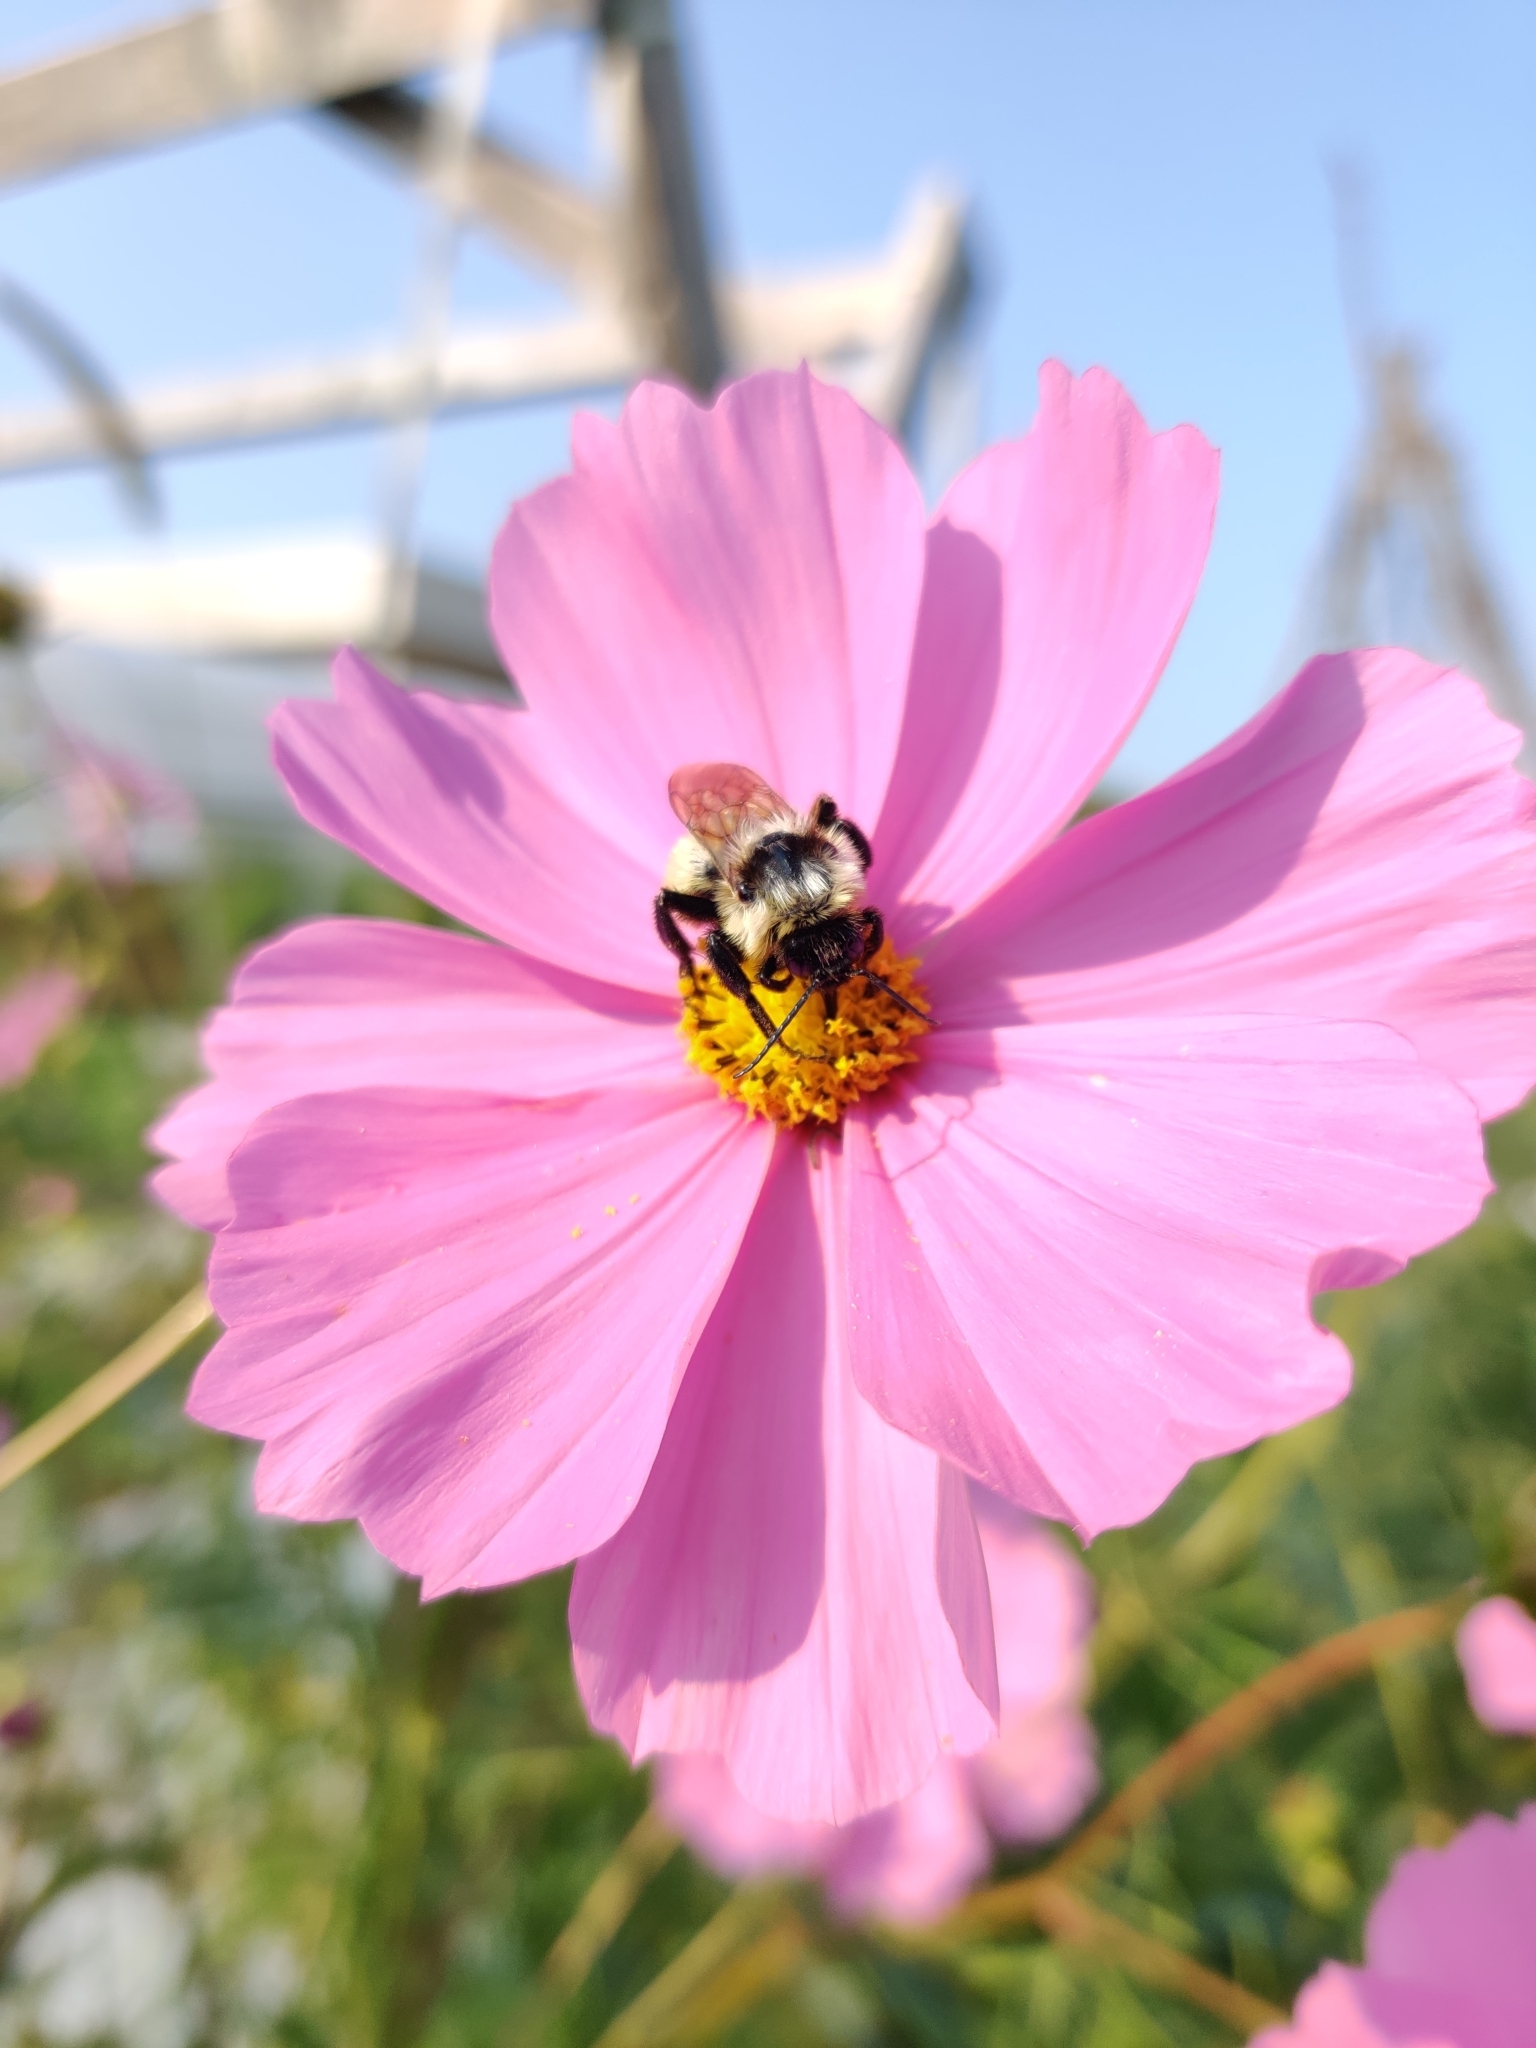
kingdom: Animalia
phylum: Arthropoda
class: Insecta
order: Hymenoptera
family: Apidae
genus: Bombus
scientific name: Bombus fervidus
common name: Yellow bumble bee
